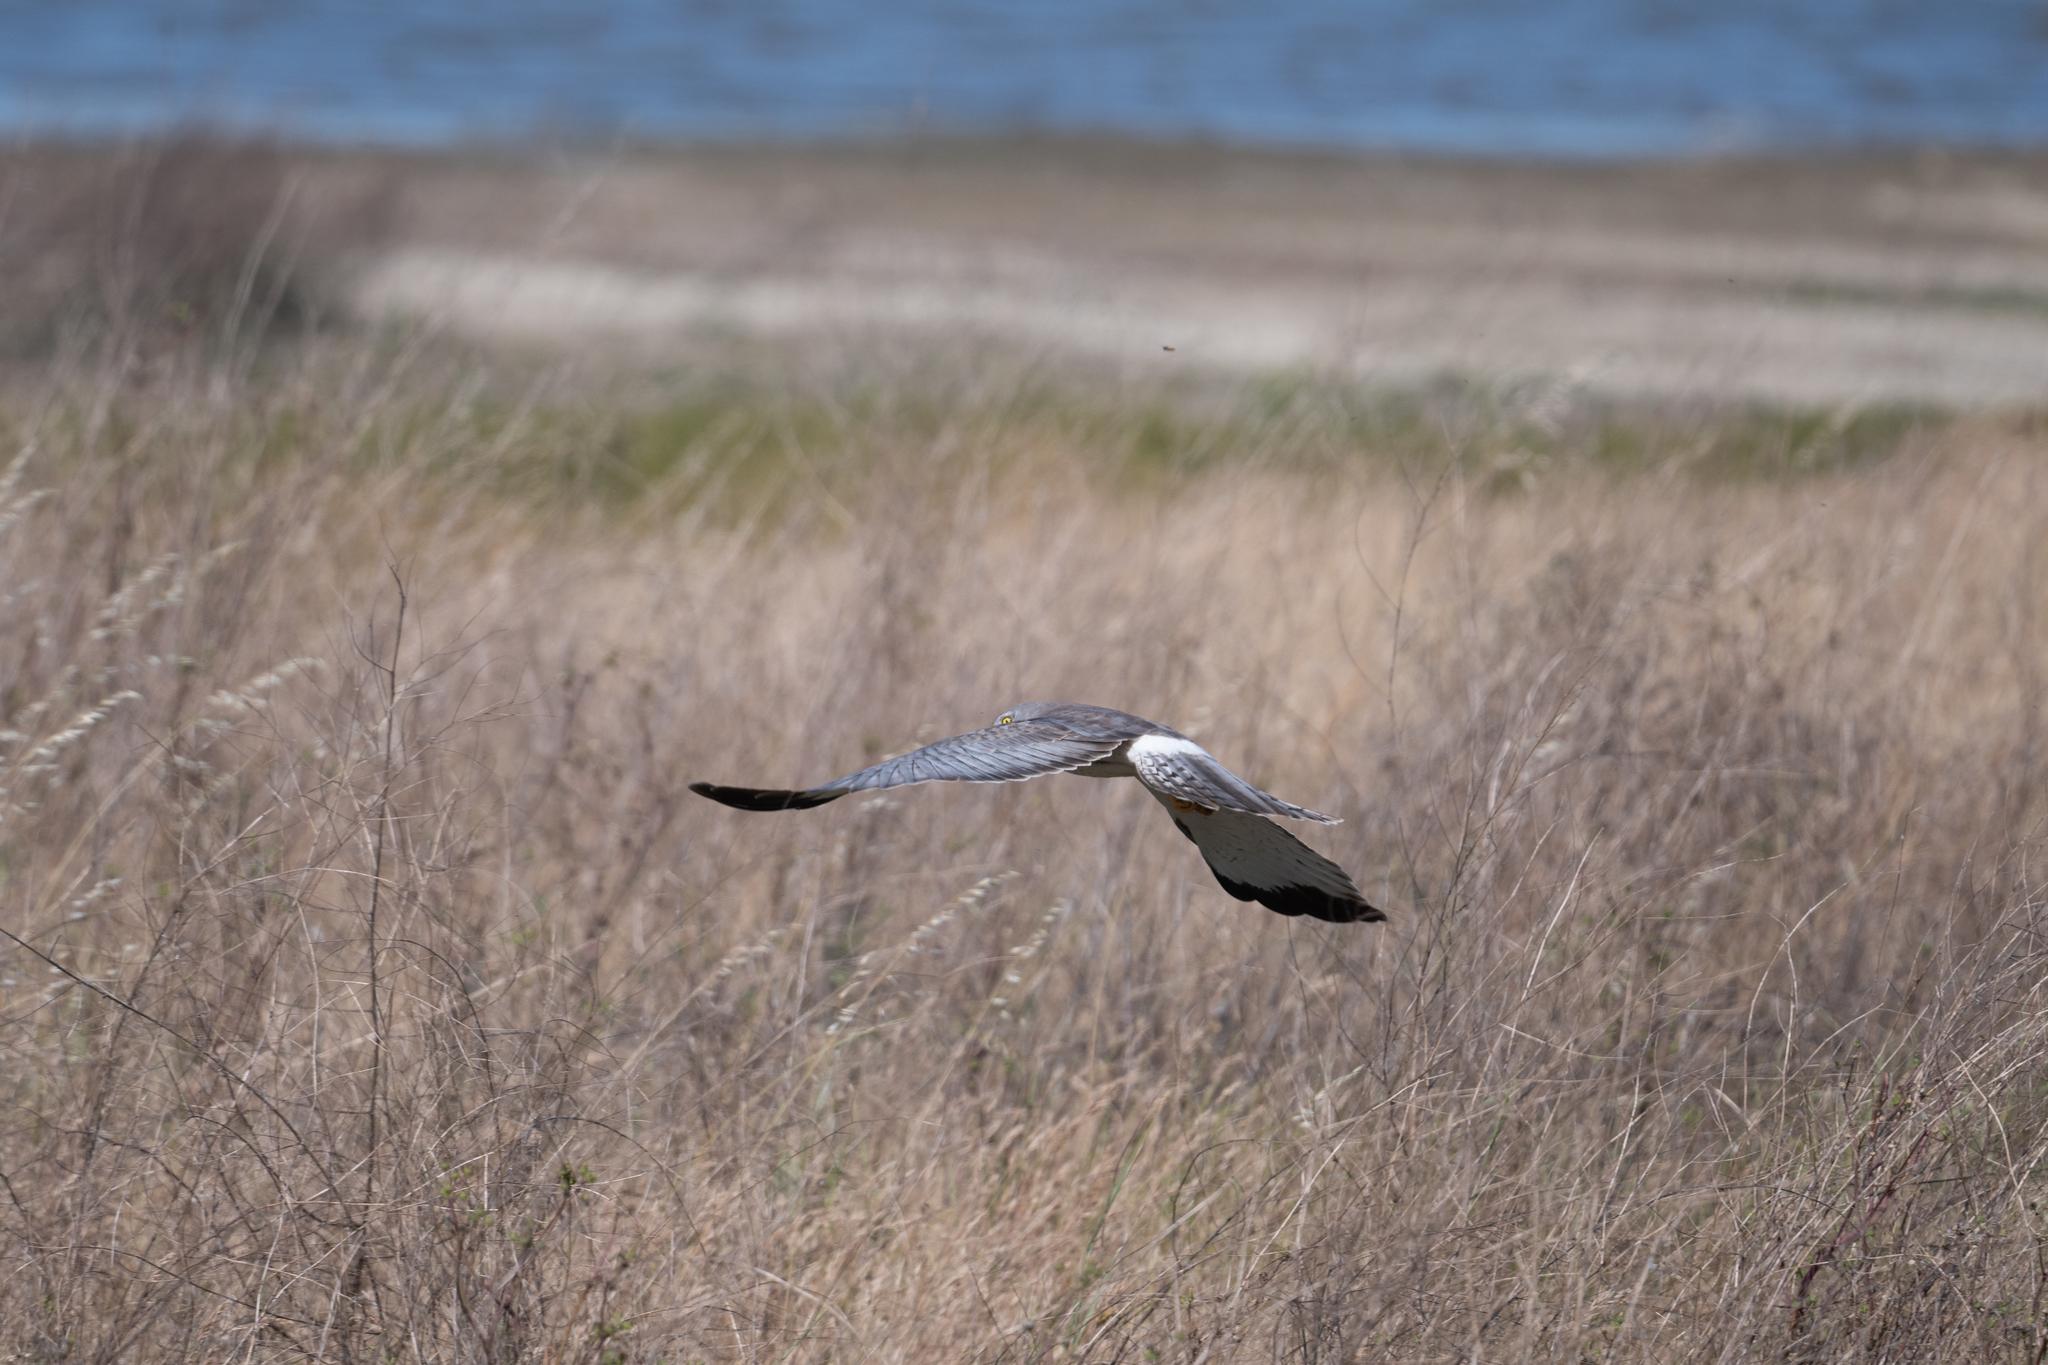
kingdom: Animalia
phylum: Chordata
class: Aves
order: Accipitriformes
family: Accipitridae
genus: Circus
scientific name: Circus cyaneus
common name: Hen harrier
